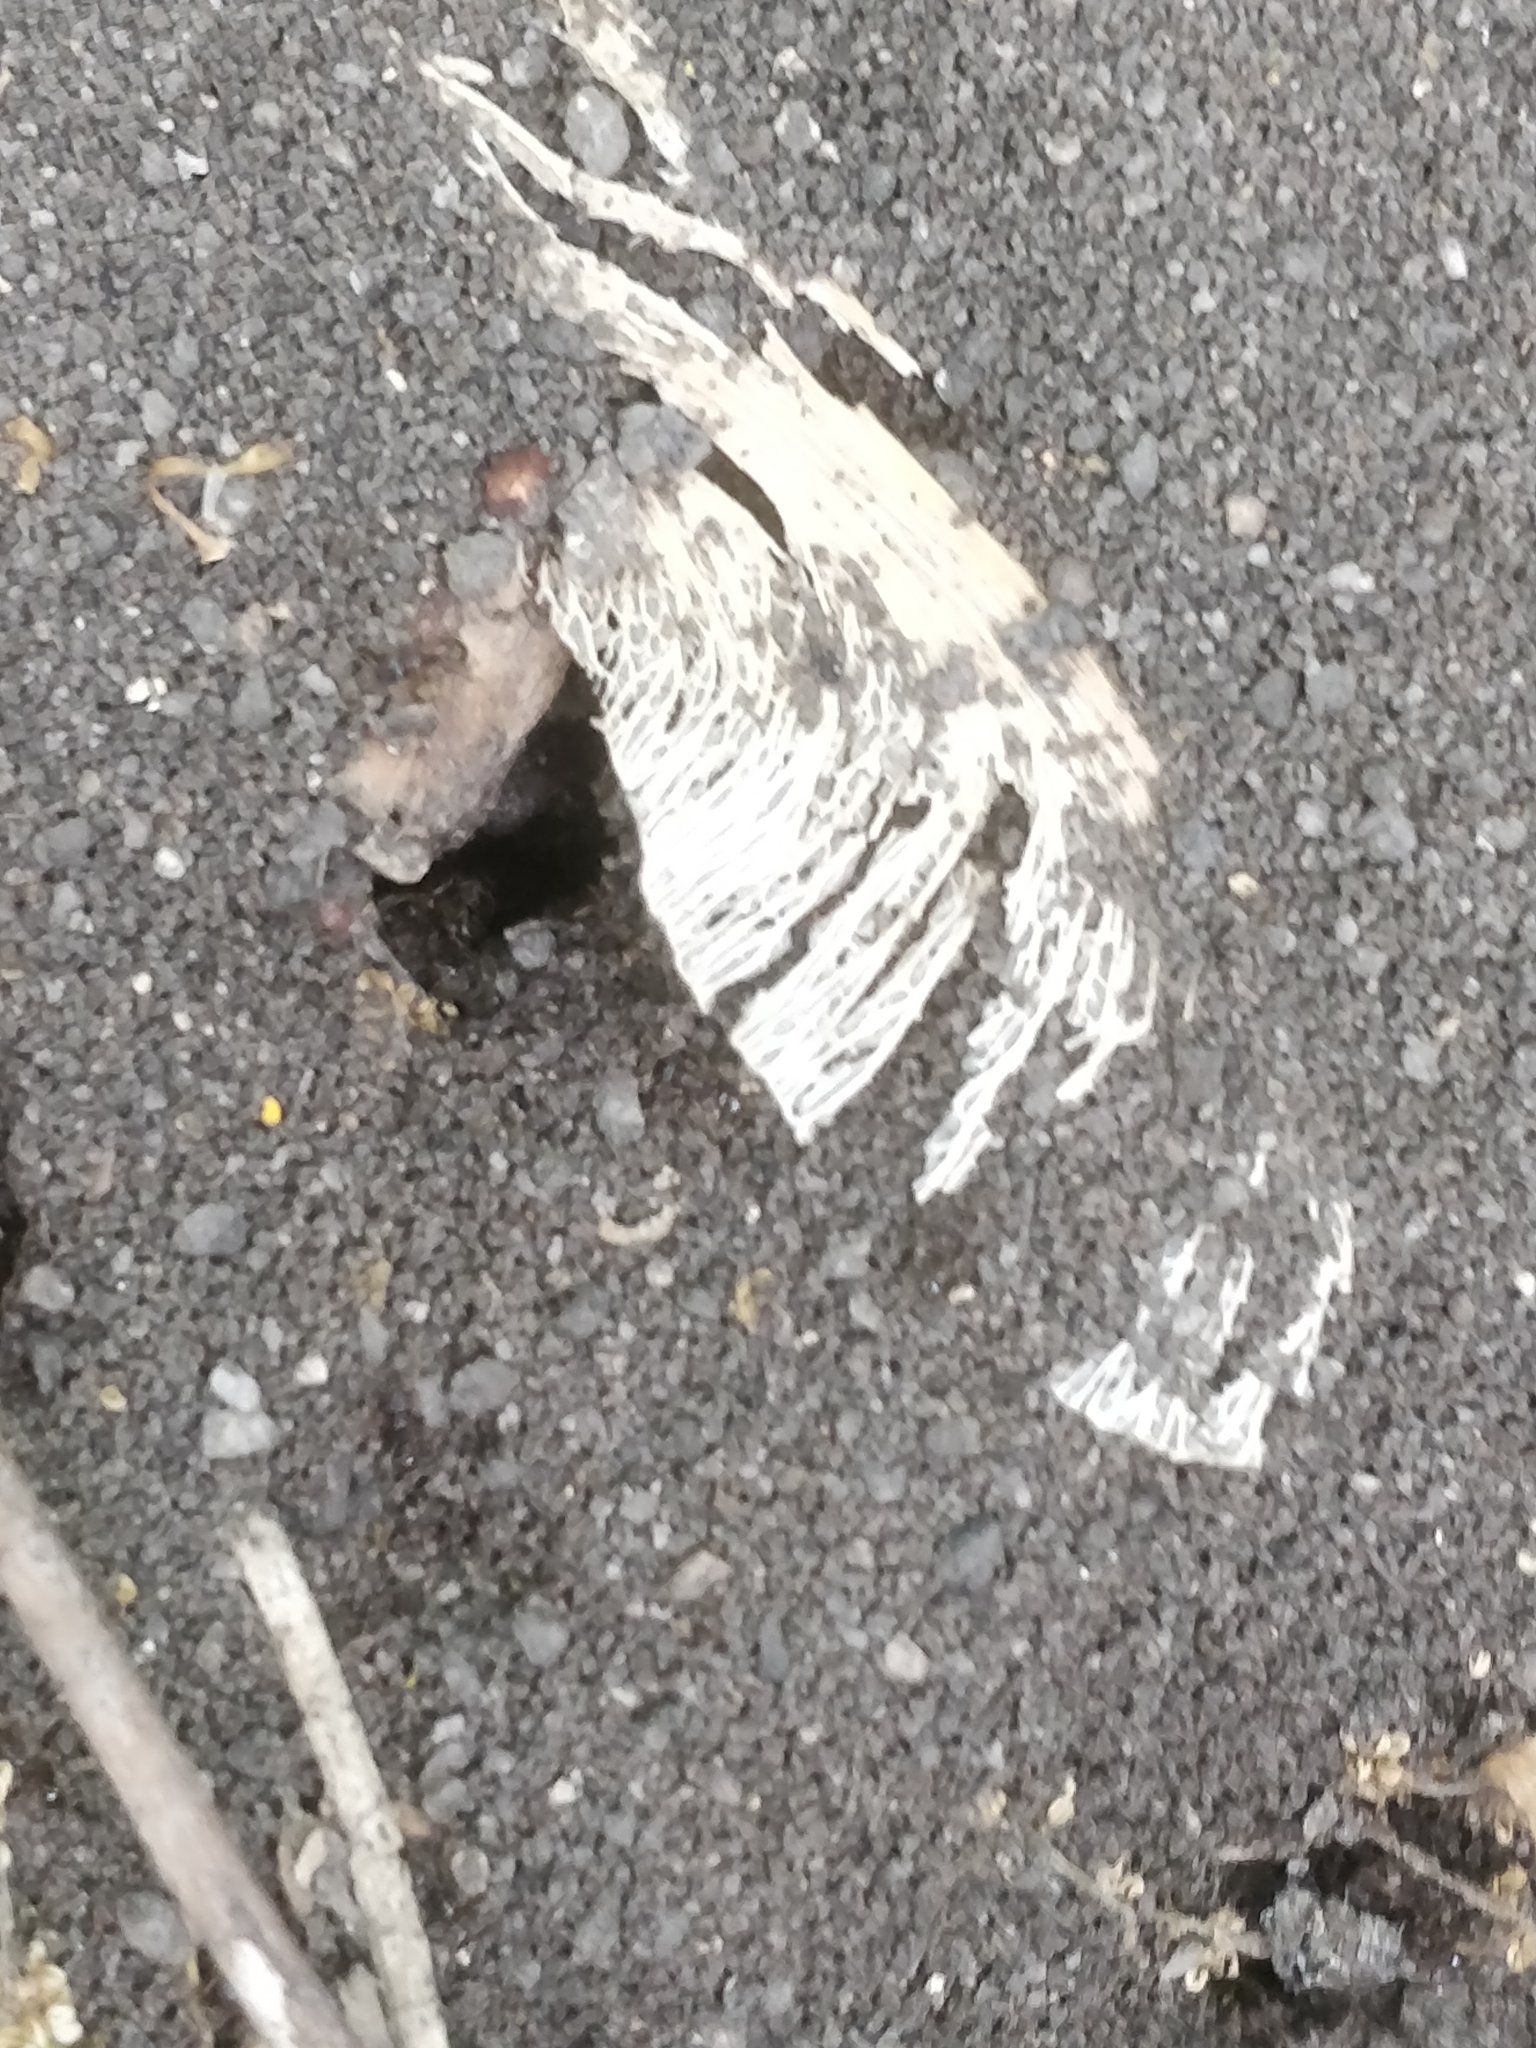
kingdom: Animalia
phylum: Arthropoda
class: Insecta
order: Hymenoptera
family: Formicidae
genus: Tetramorium
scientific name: Tetramorium immigrans
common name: Pavement ant
